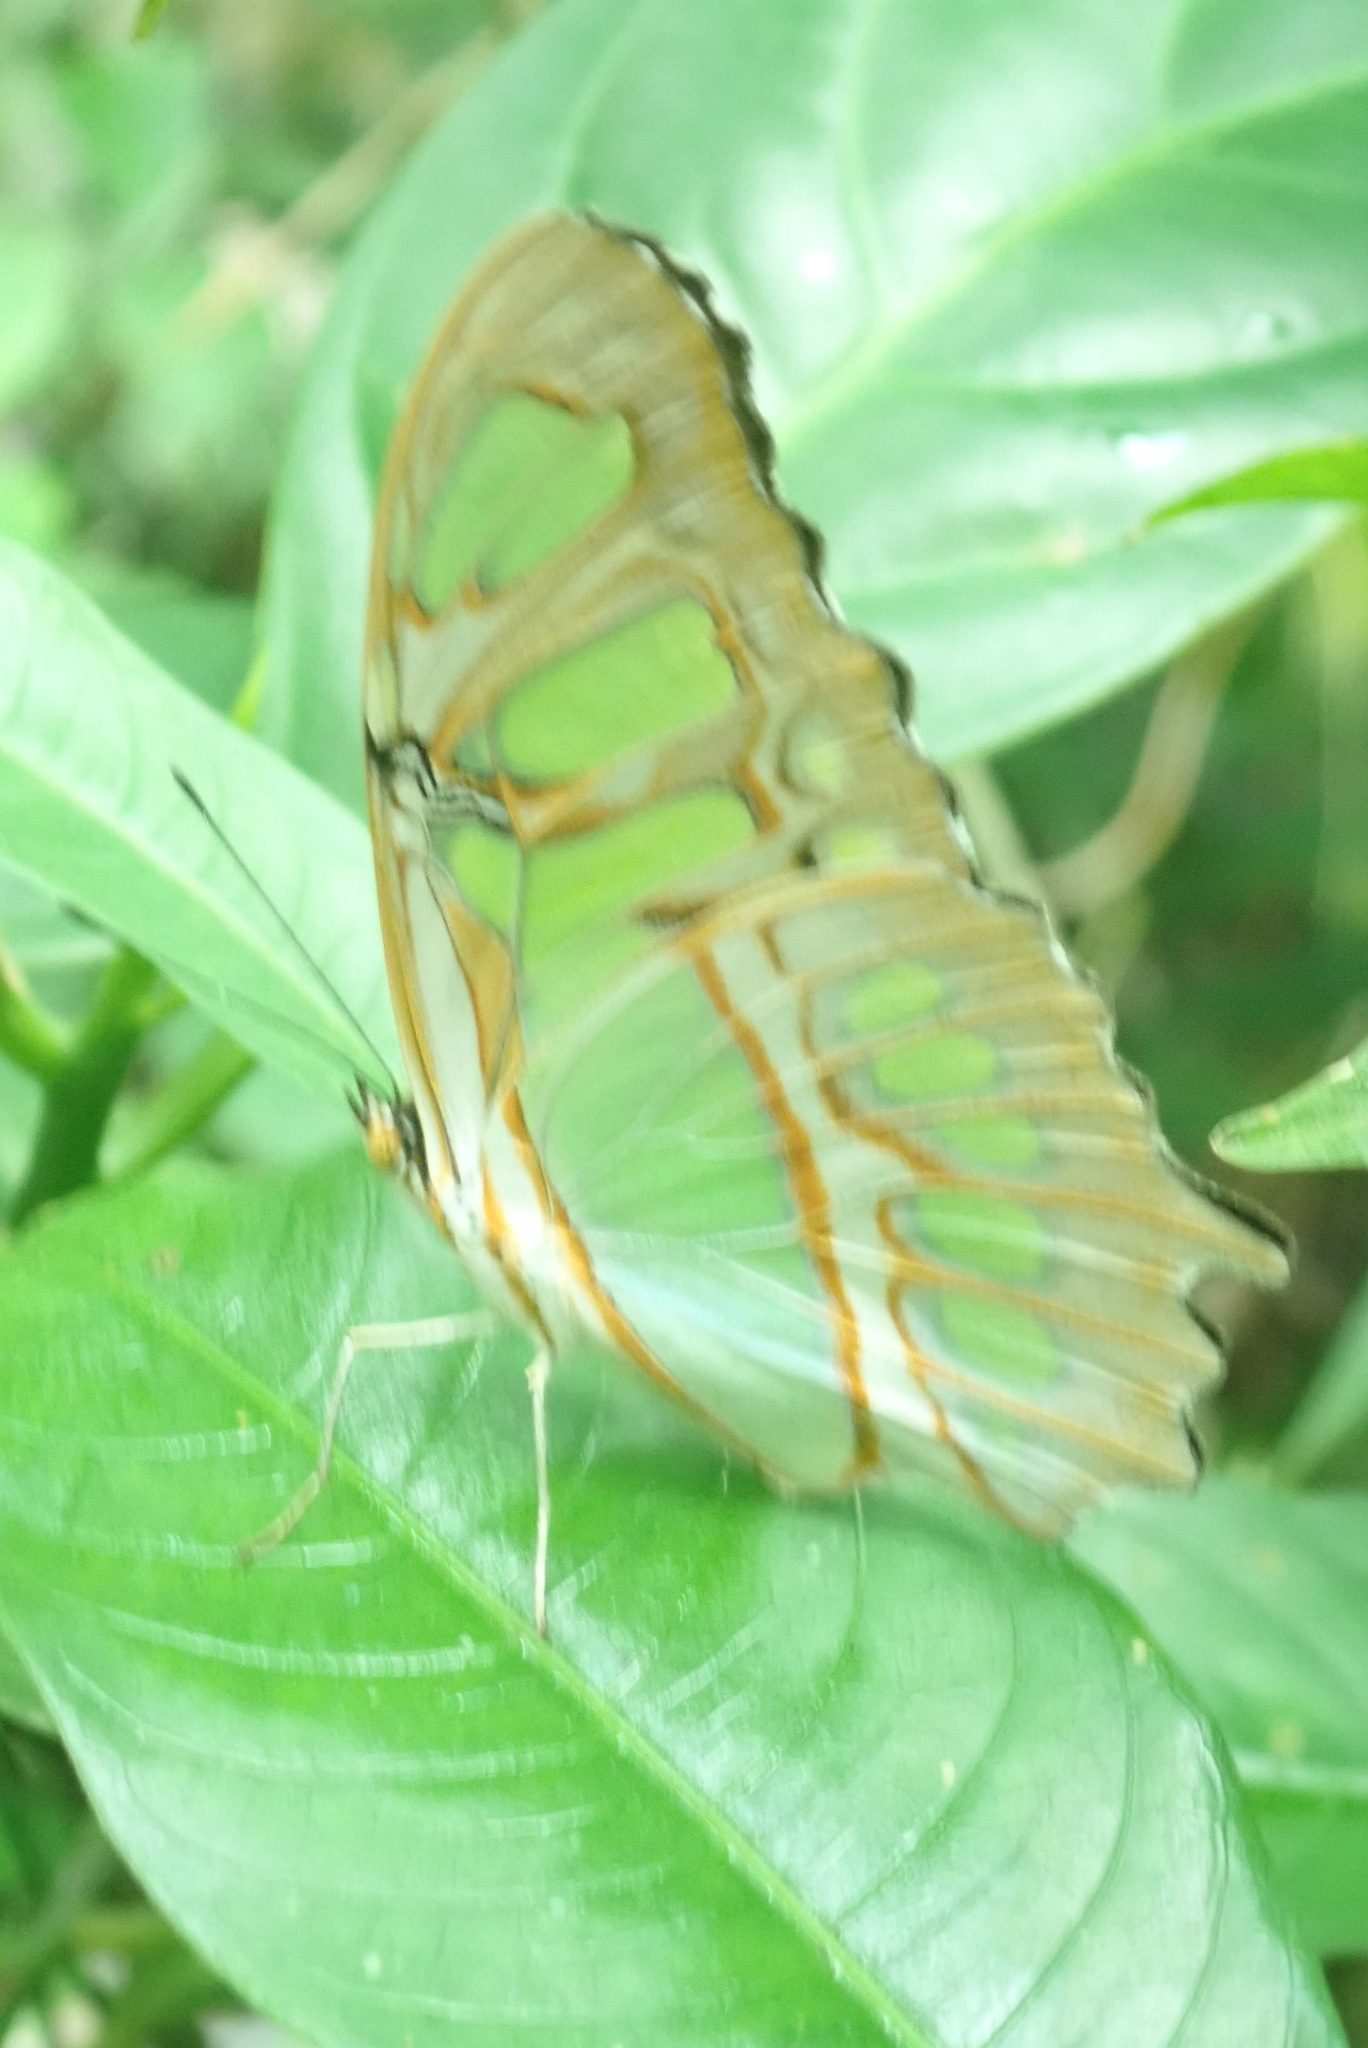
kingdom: Animalia
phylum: Arthropoda
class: Insecta
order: Lepidoptera
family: Nymphalidae
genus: Siproeta
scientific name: Siproeta stelenes
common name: Malachite
